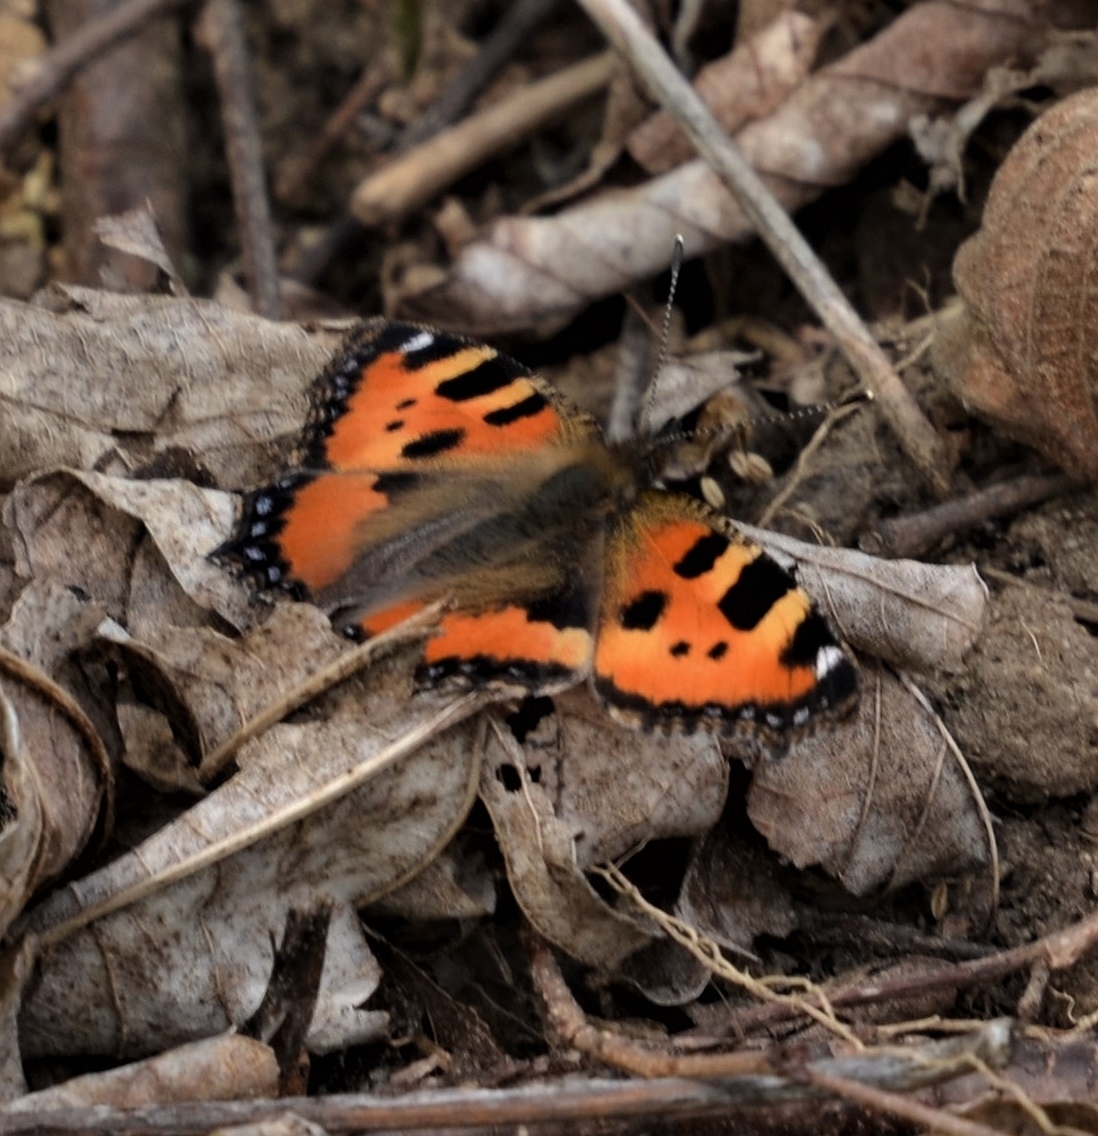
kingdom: Animalia
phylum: Arthropoda
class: Insecta
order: Lepidoptera
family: Nymphalidae
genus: Aglais
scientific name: Aglais urticae
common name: Small tortoiseshell
